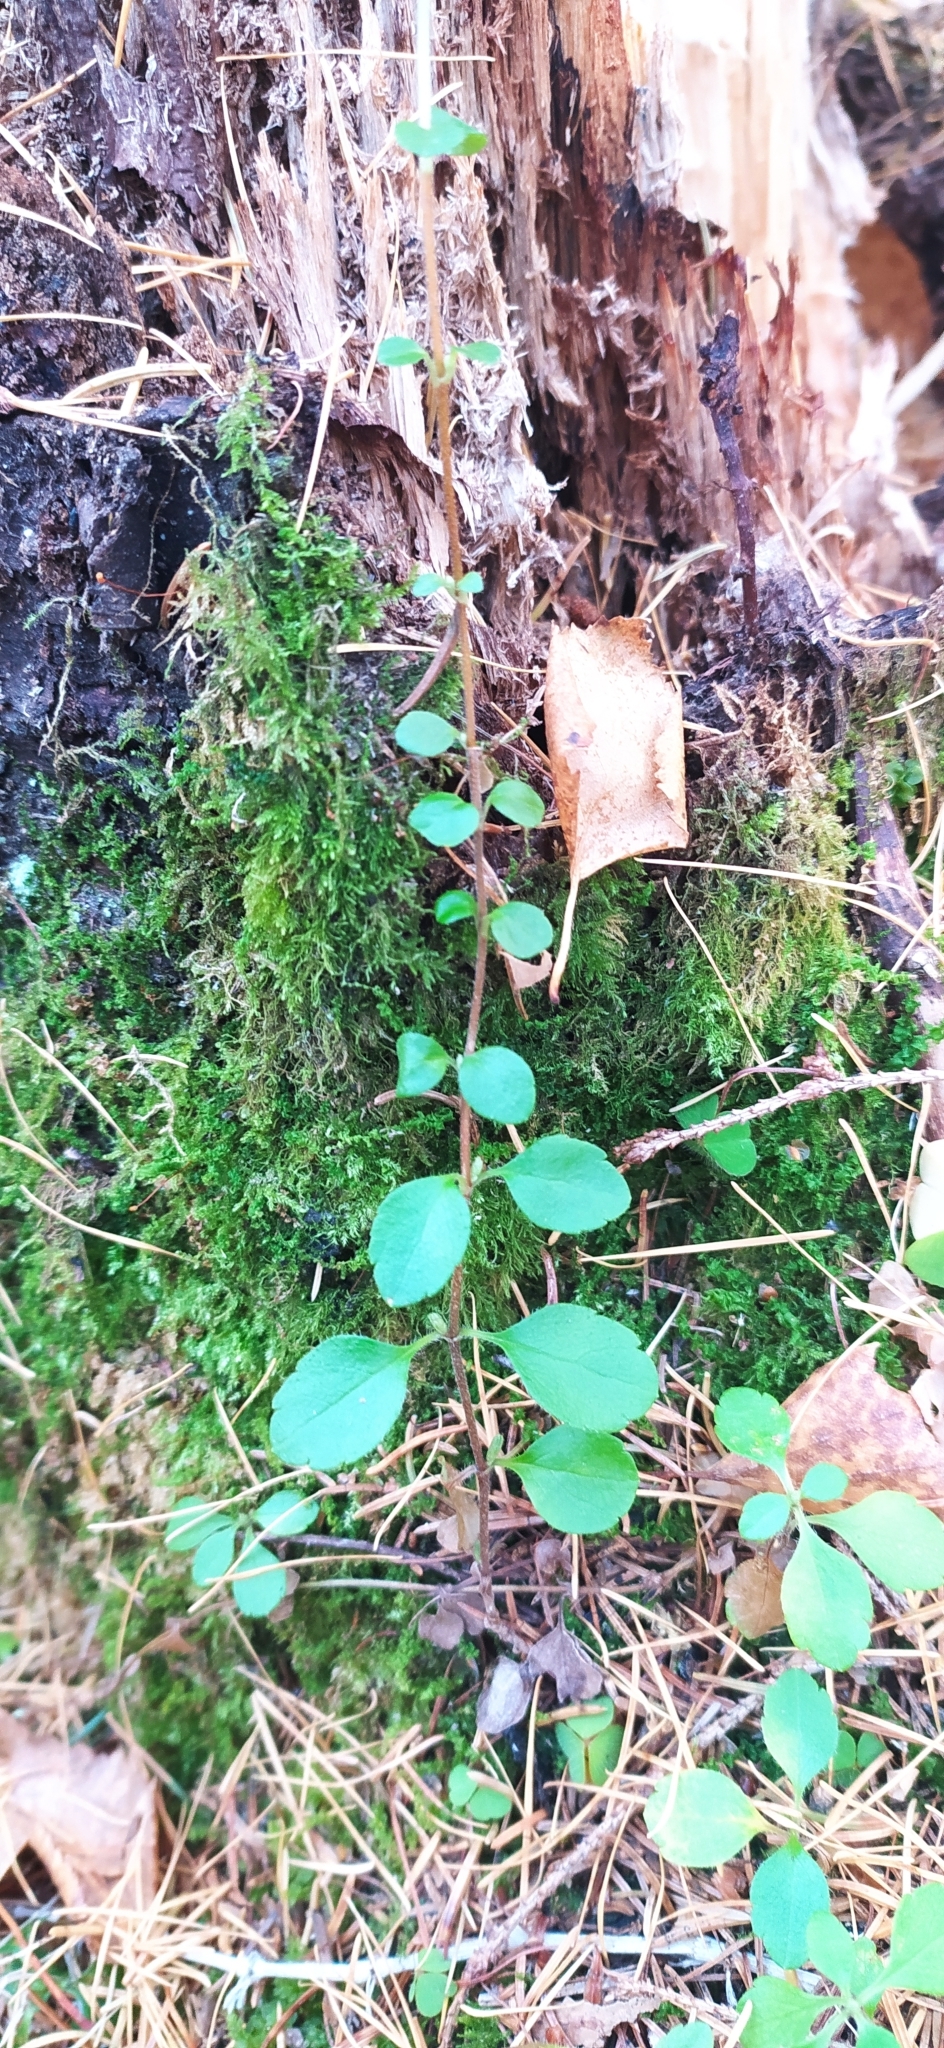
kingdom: Plantae
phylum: Tracheophyta
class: Magnoliopsida
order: Dipsacales
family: Caprifoliaceae
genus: Linnaea
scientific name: Linnaea borealis
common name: Twinflower
